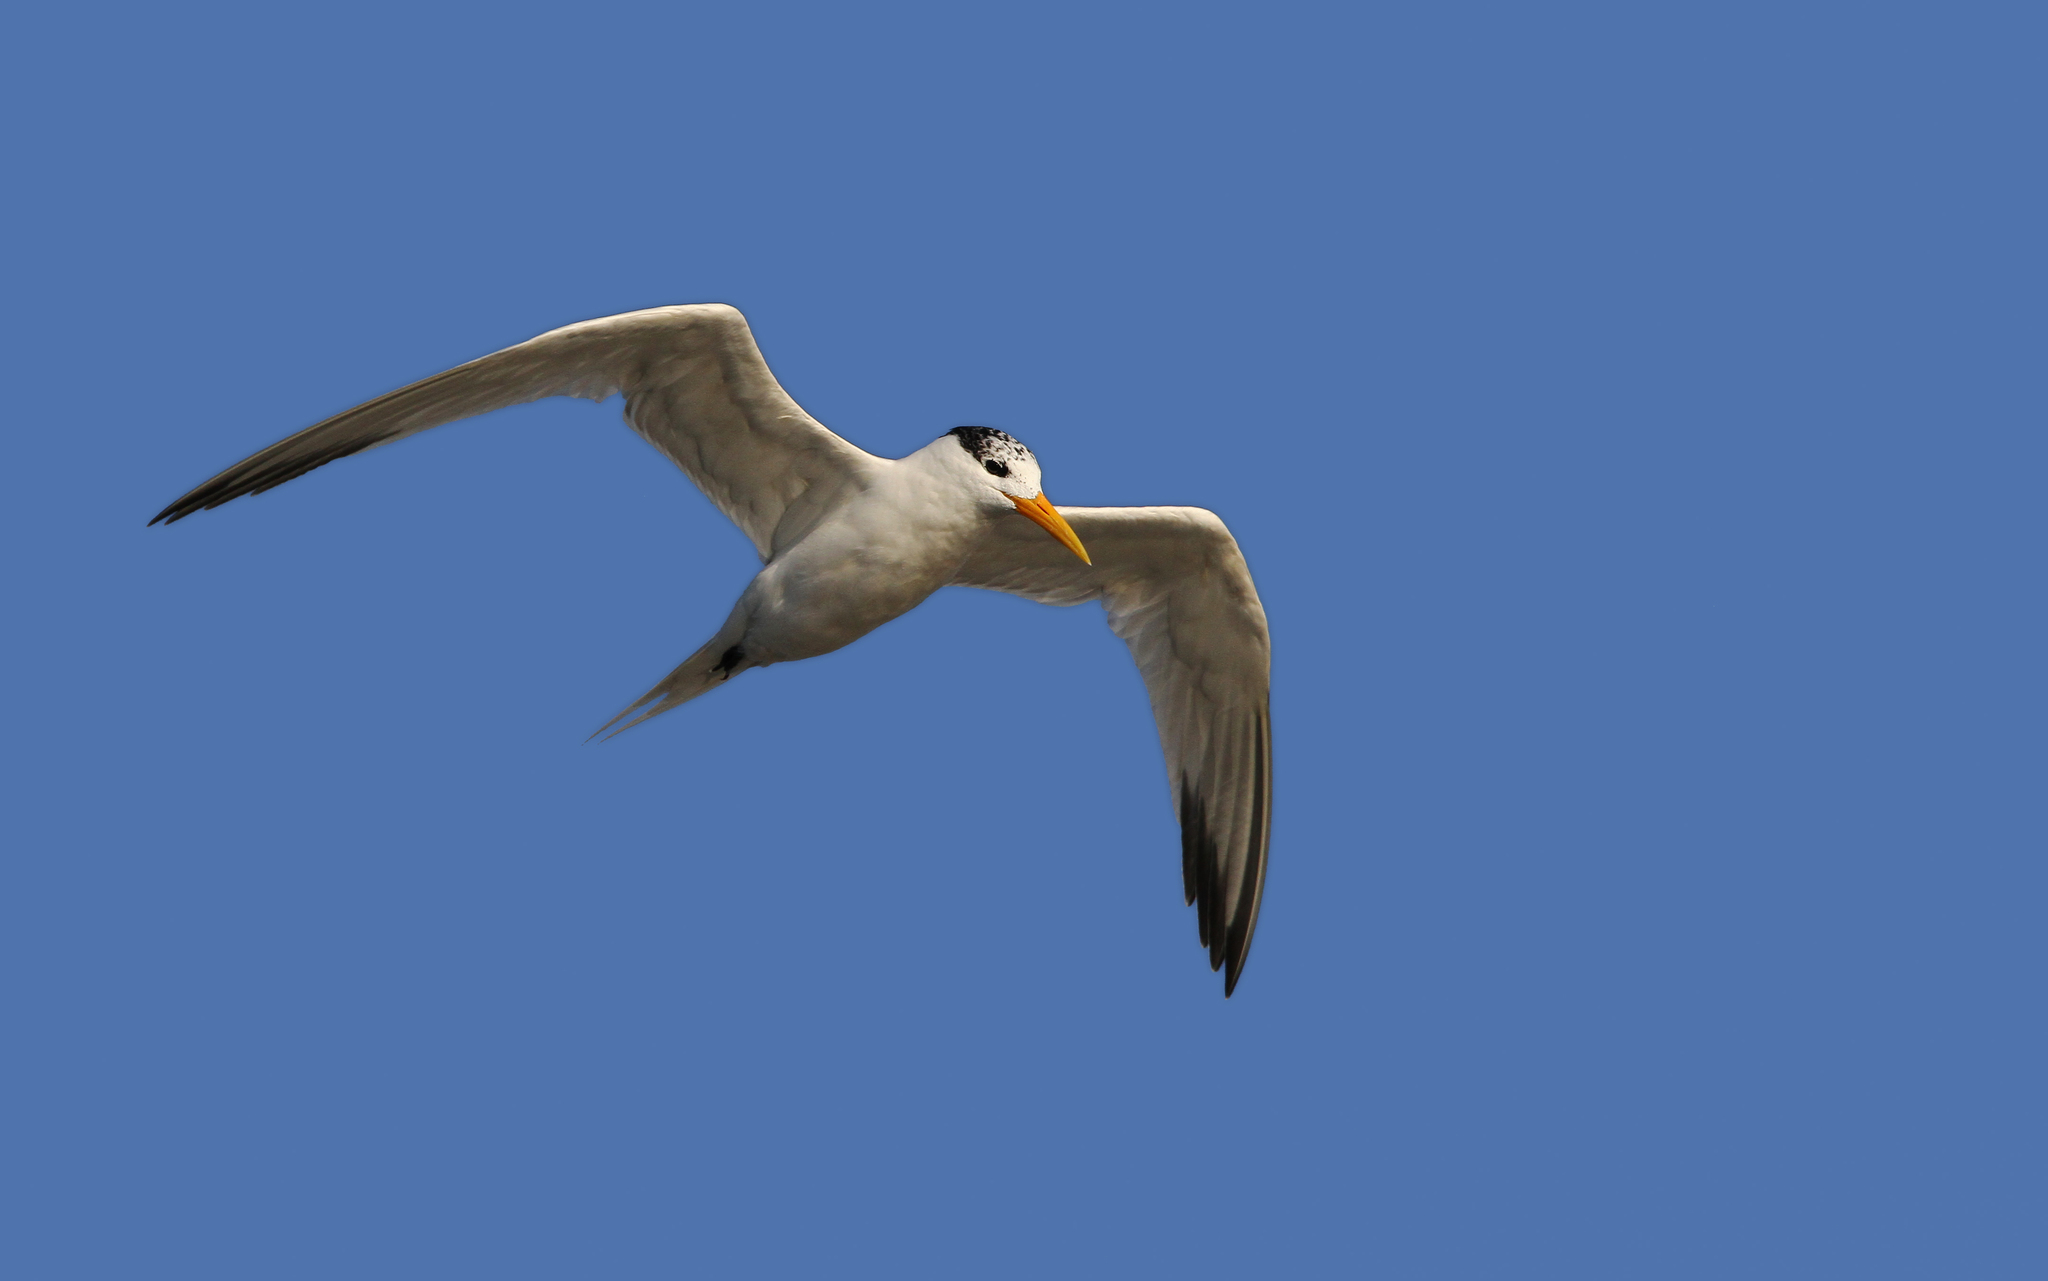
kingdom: Animalia
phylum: Chordata
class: Aves
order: Charadriiformes
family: Laridae
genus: Thalasseus
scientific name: Thalasseus albididorsalis
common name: West african crested tern
